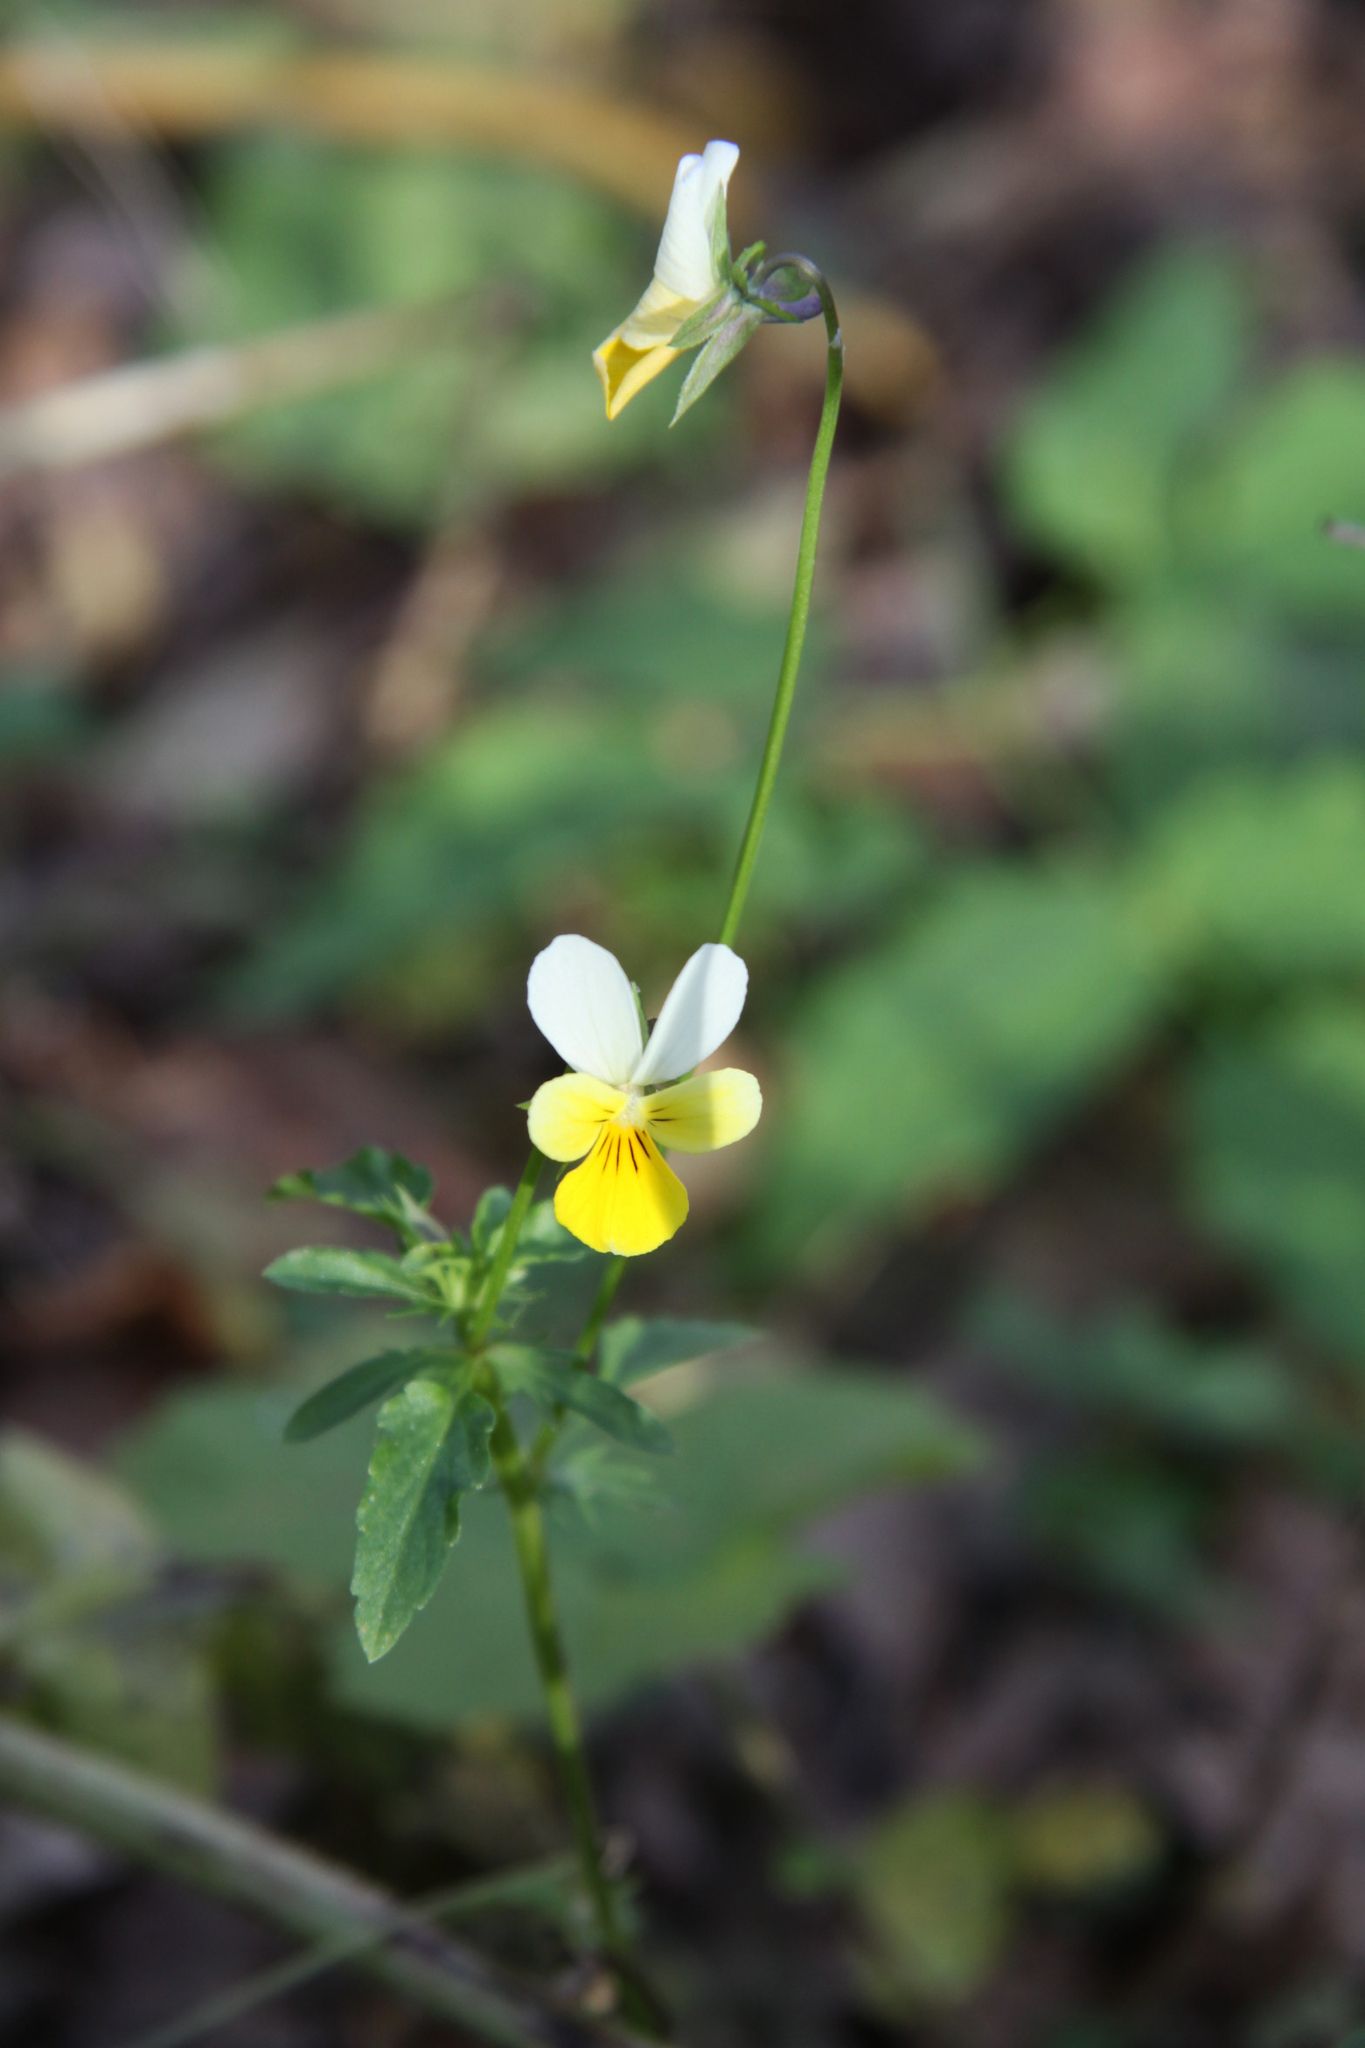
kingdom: Plantae
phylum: Tracheophyta
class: Magnoliopsida
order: Malpighiales
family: Violaceae
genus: Viola
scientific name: Viola tricolor
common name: Pansy
